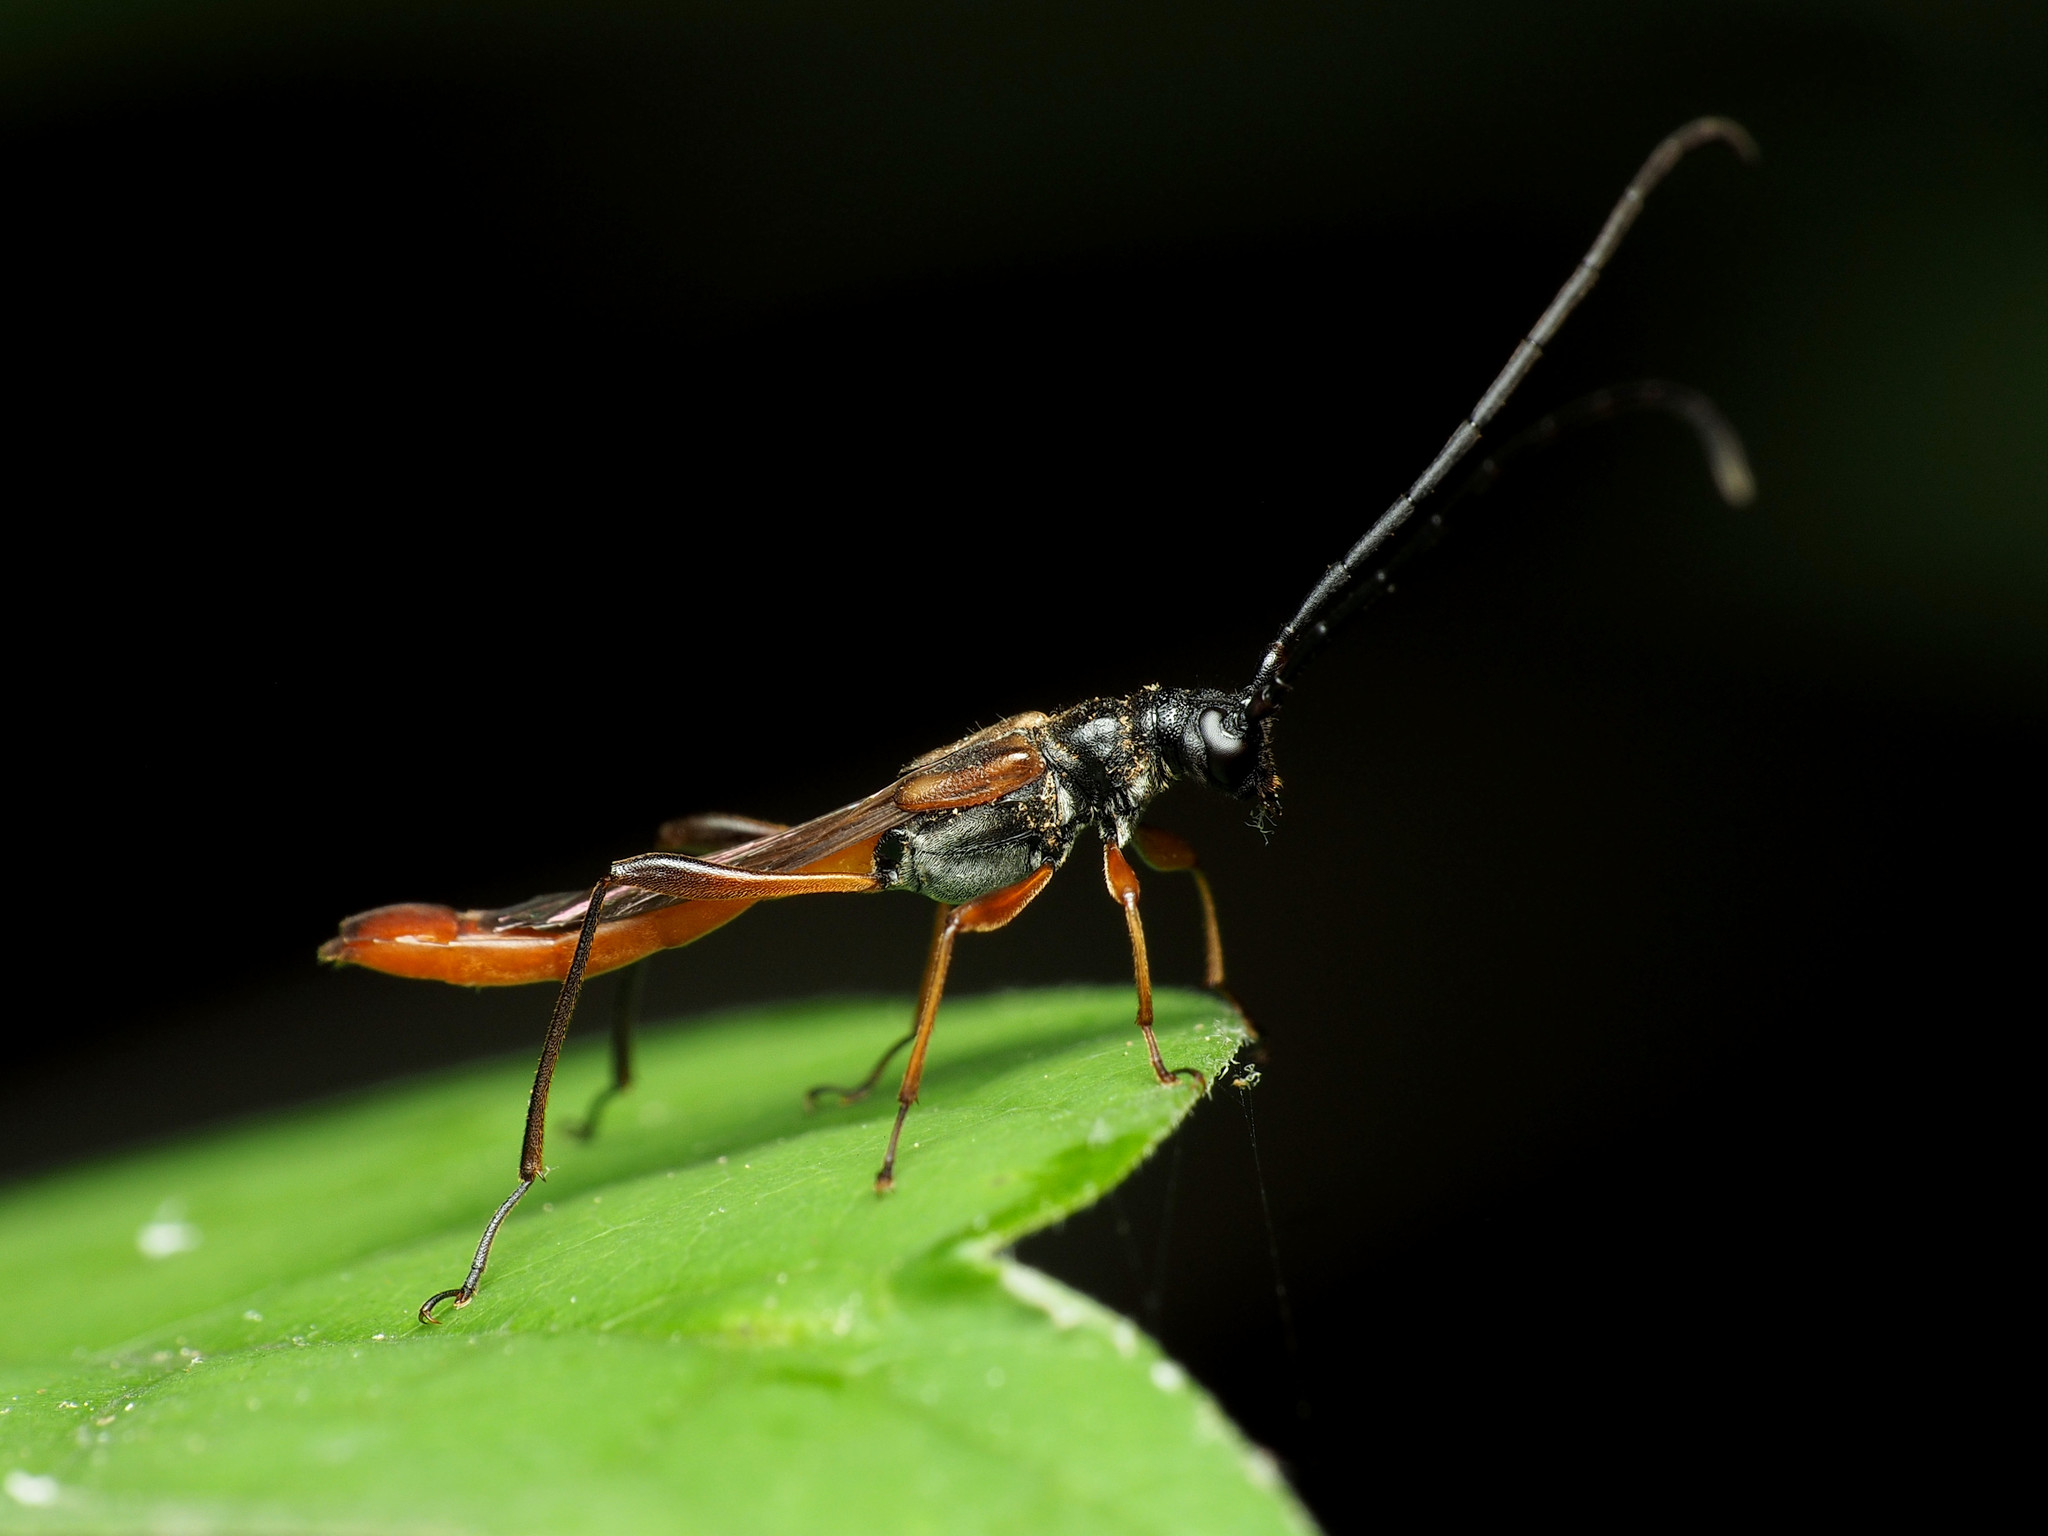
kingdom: Animalia
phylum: Arthropoda
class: Insecta
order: Coleoptera
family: Cerambycidae
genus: Necydalis
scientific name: Necydalis mellita
